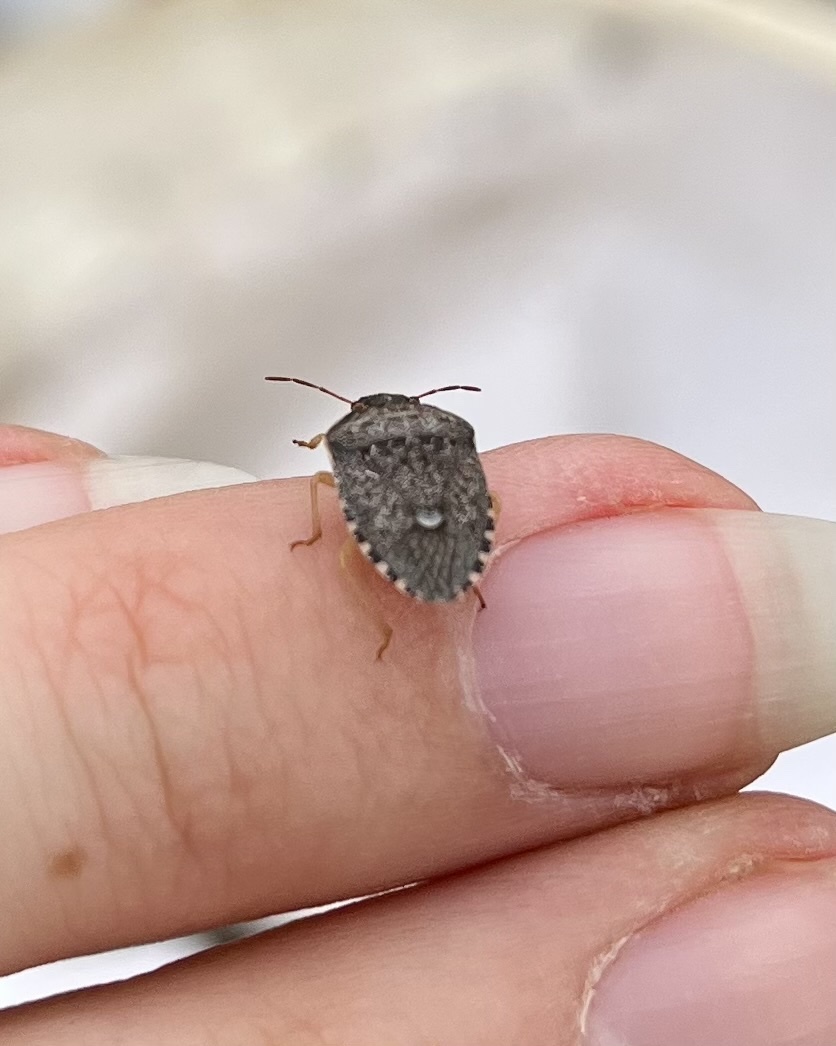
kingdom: Animalia
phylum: Arthropoda
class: Insecta
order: Hemiptera
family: Pentatomidae
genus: Holcostethus
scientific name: Holcostethus abbreviatus
